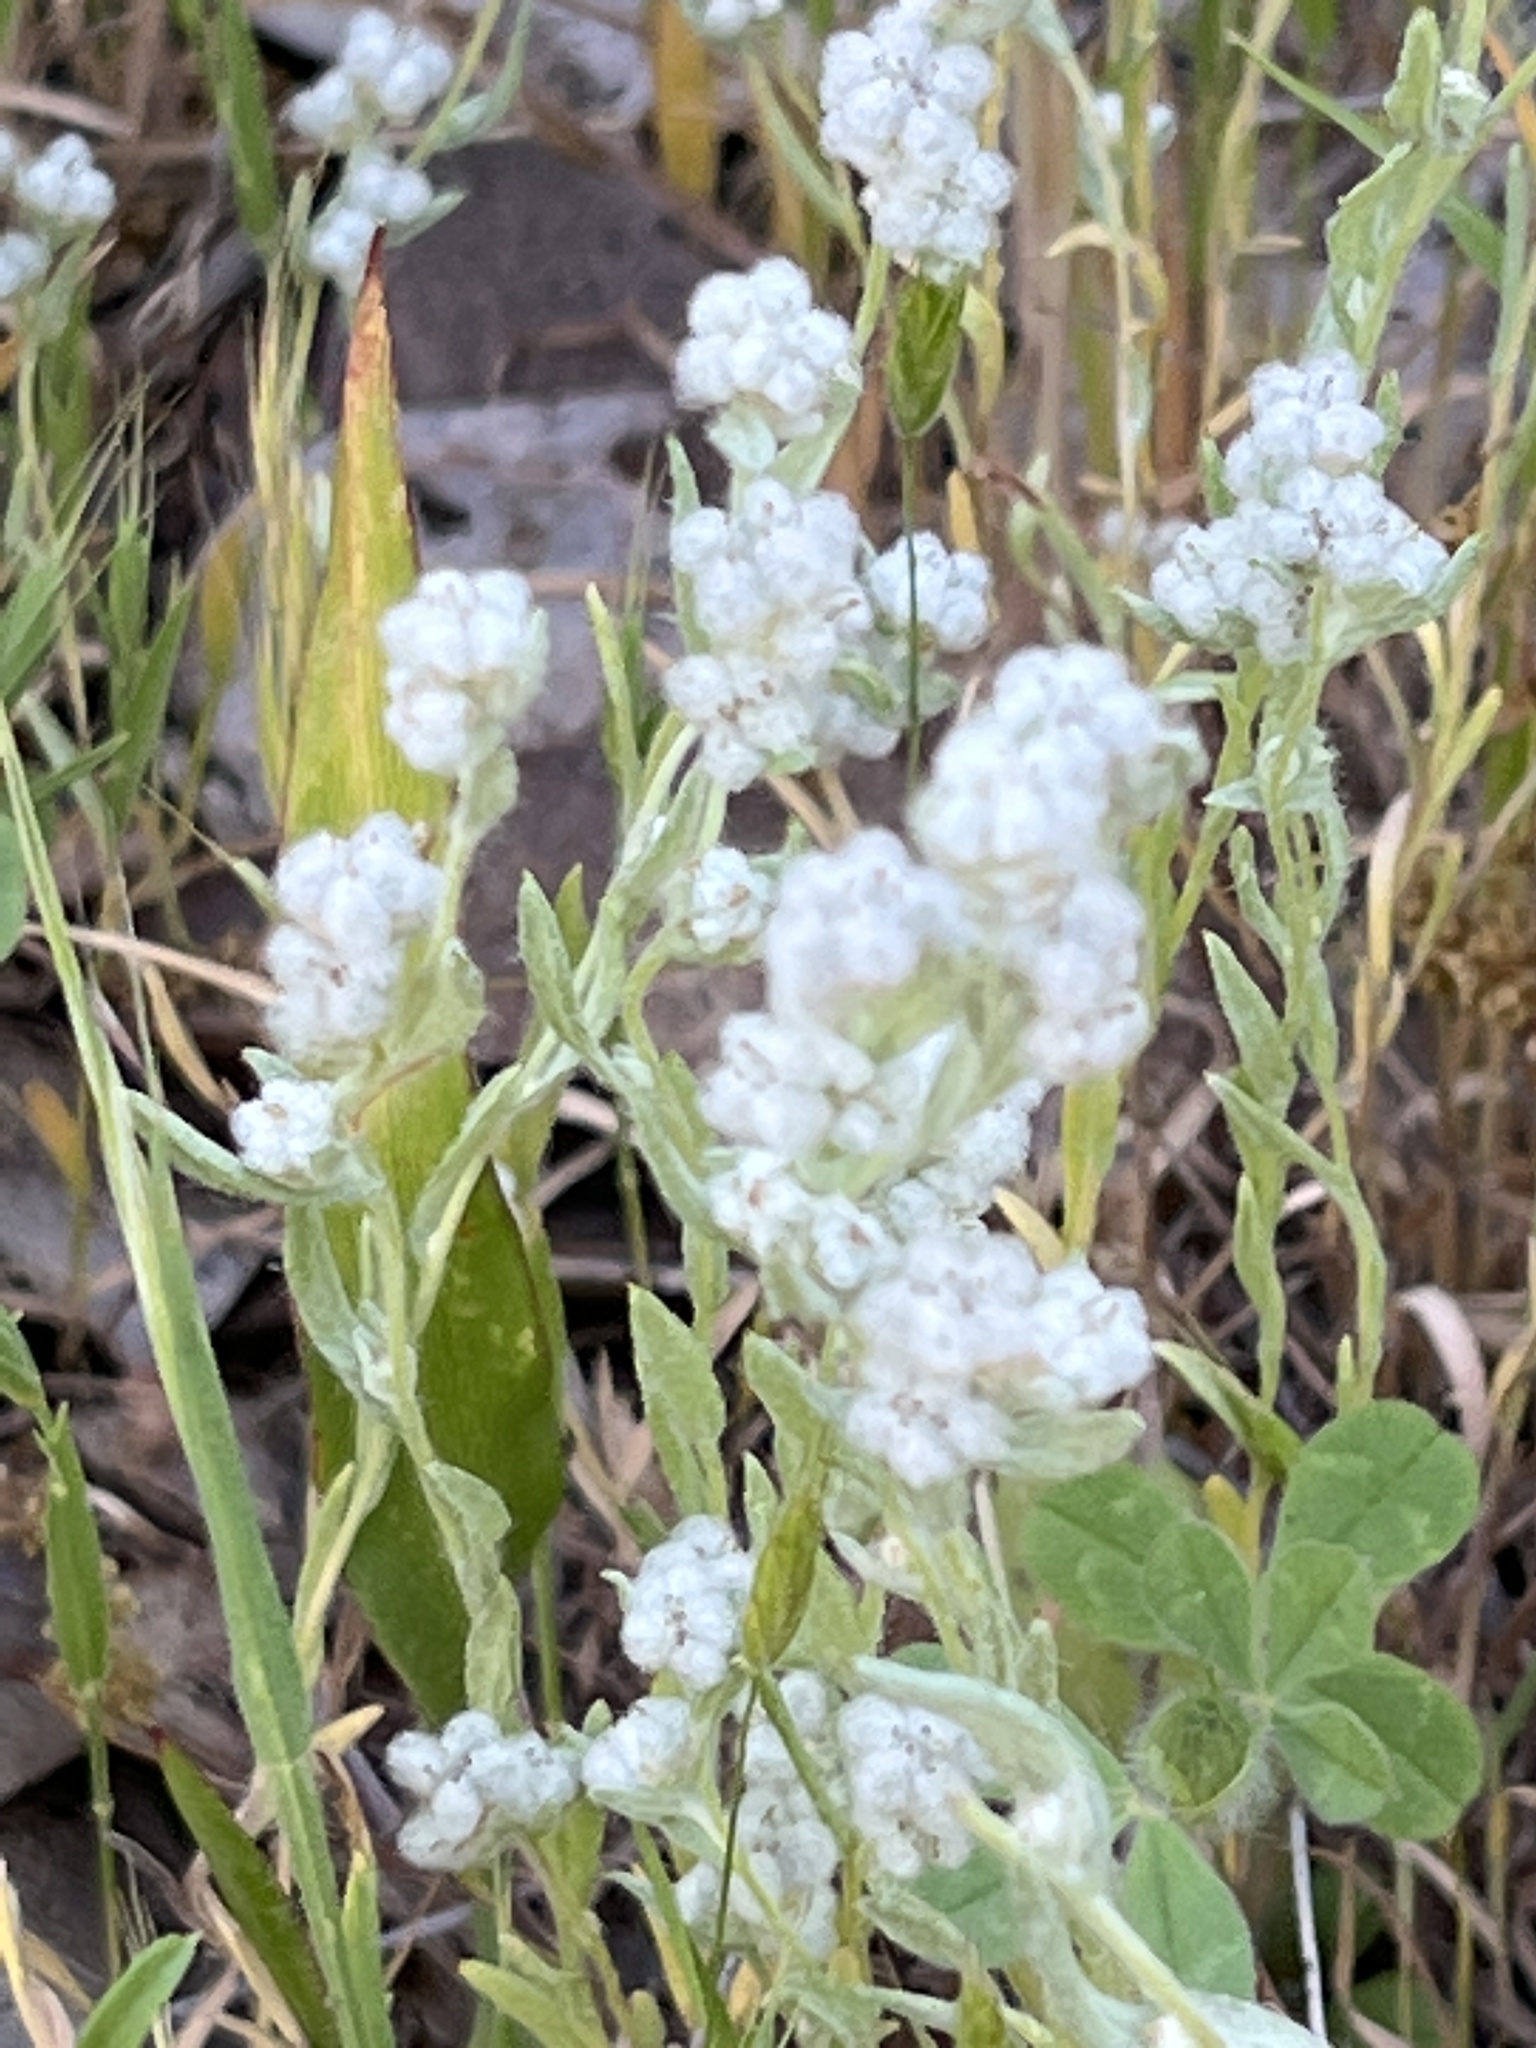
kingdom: Plantae
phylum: Tracheophyta
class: Magnoliopsida
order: Asterales
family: Asteraceae
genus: Bombycilaena
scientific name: Bombycilaena californica
